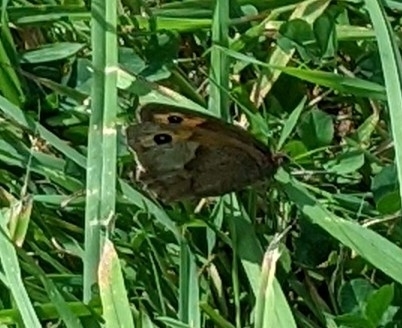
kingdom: Animalia
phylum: Arthropoda
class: Insecta
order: Lepidoptera
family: Nymphalidae
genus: Maniola
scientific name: Maniola jurtina
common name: Meadow brown
